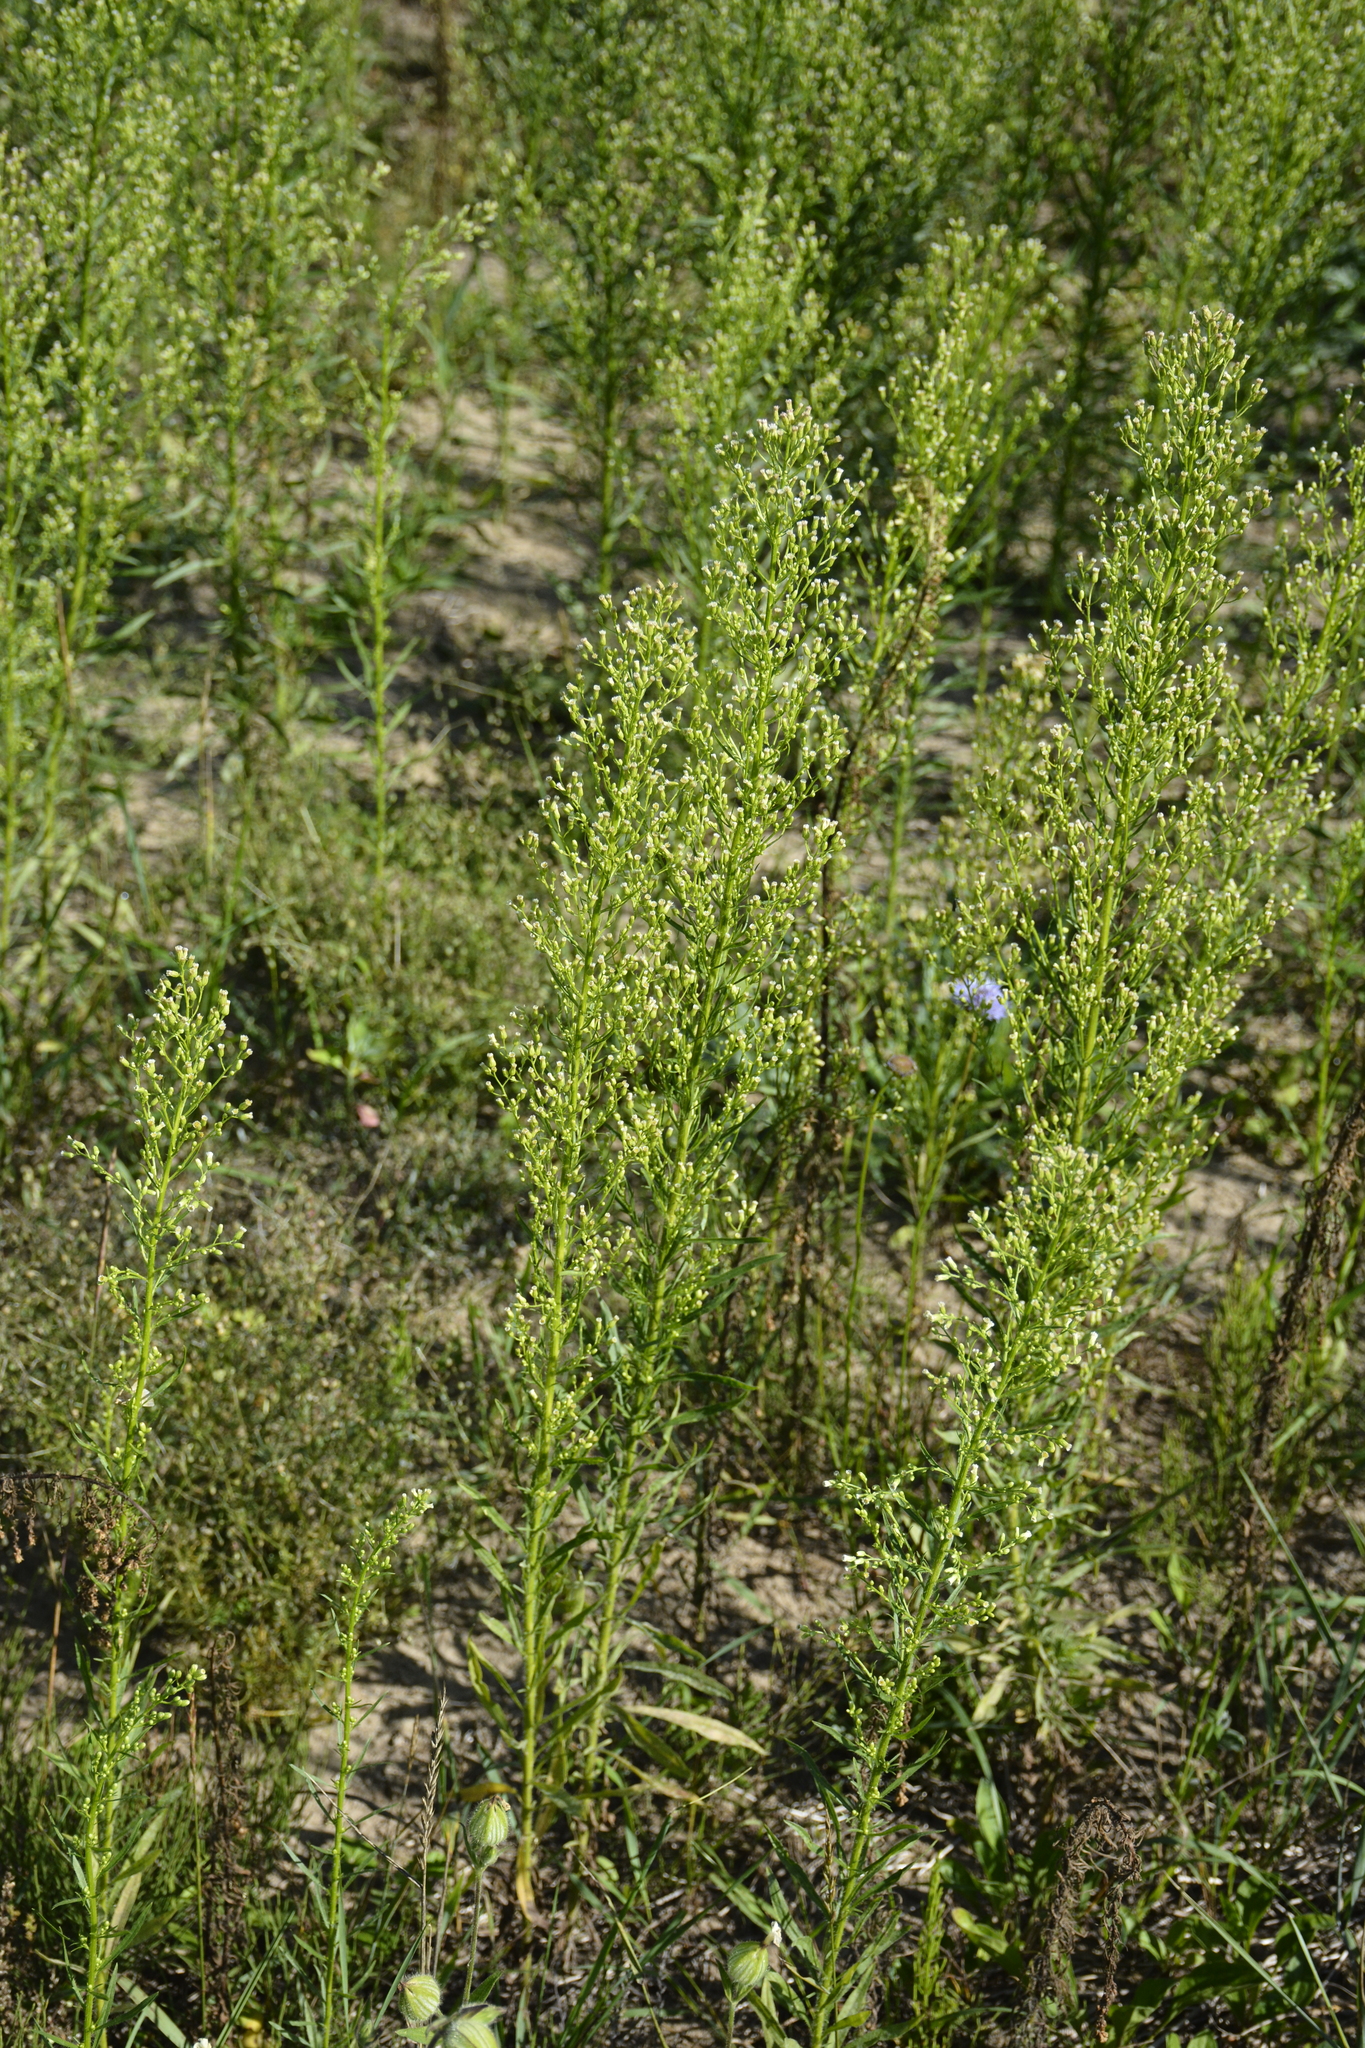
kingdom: Plantae
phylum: Tracheophyta
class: Magnoliopsida
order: Asterales
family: Asteraceae
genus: Erigeron
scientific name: Erigeron canadensis
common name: Canadian fleabane
